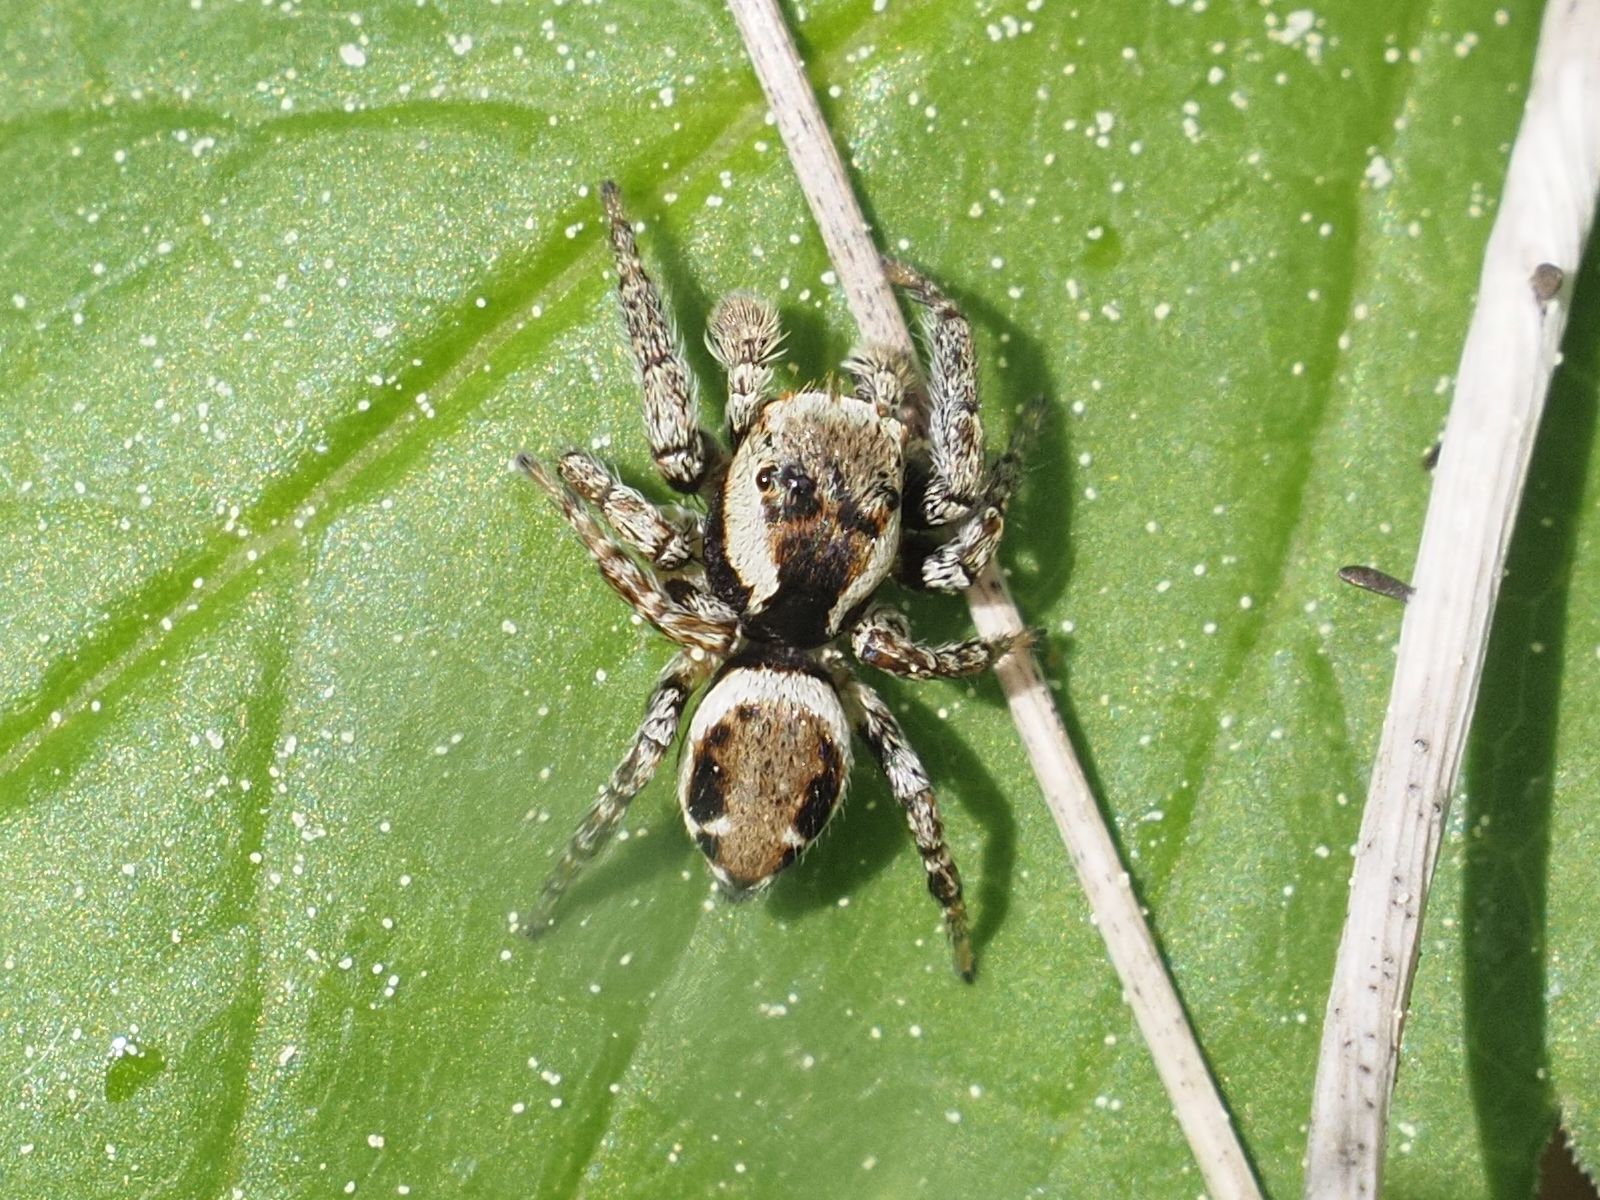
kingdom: Animalia
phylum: Arthropoda
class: Arachnida
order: Araneae
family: Salticidae
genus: Evarcha
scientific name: Evarcha falcata
